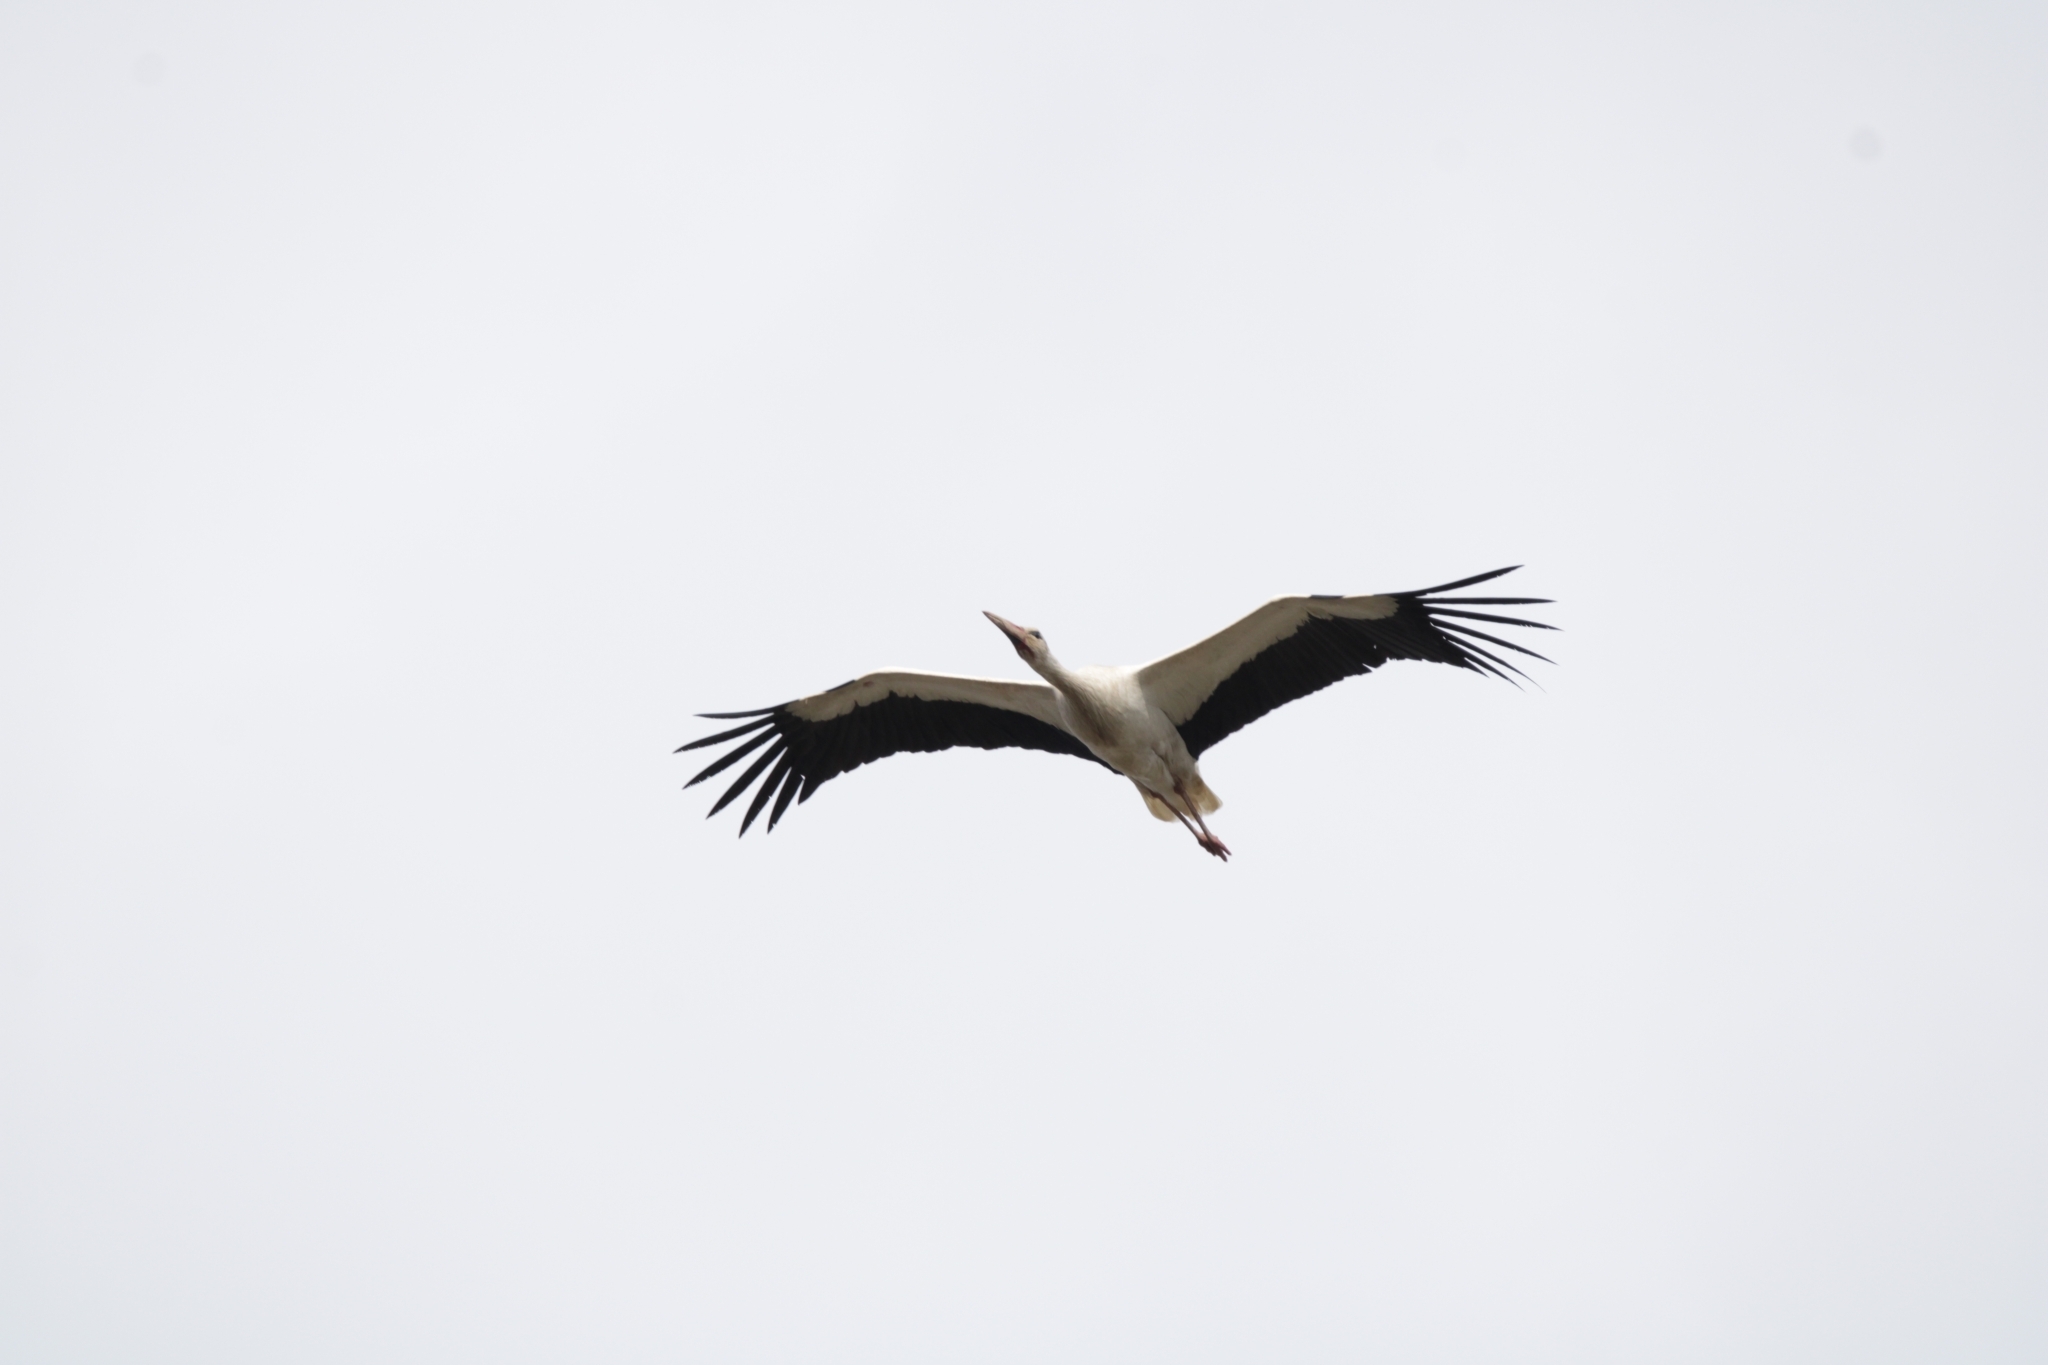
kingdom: Animalia
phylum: Chordata
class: Aves
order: Ciconiiformes
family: Ciconiidae
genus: Ciconia
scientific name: Ciconia ciconia
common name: White stork
